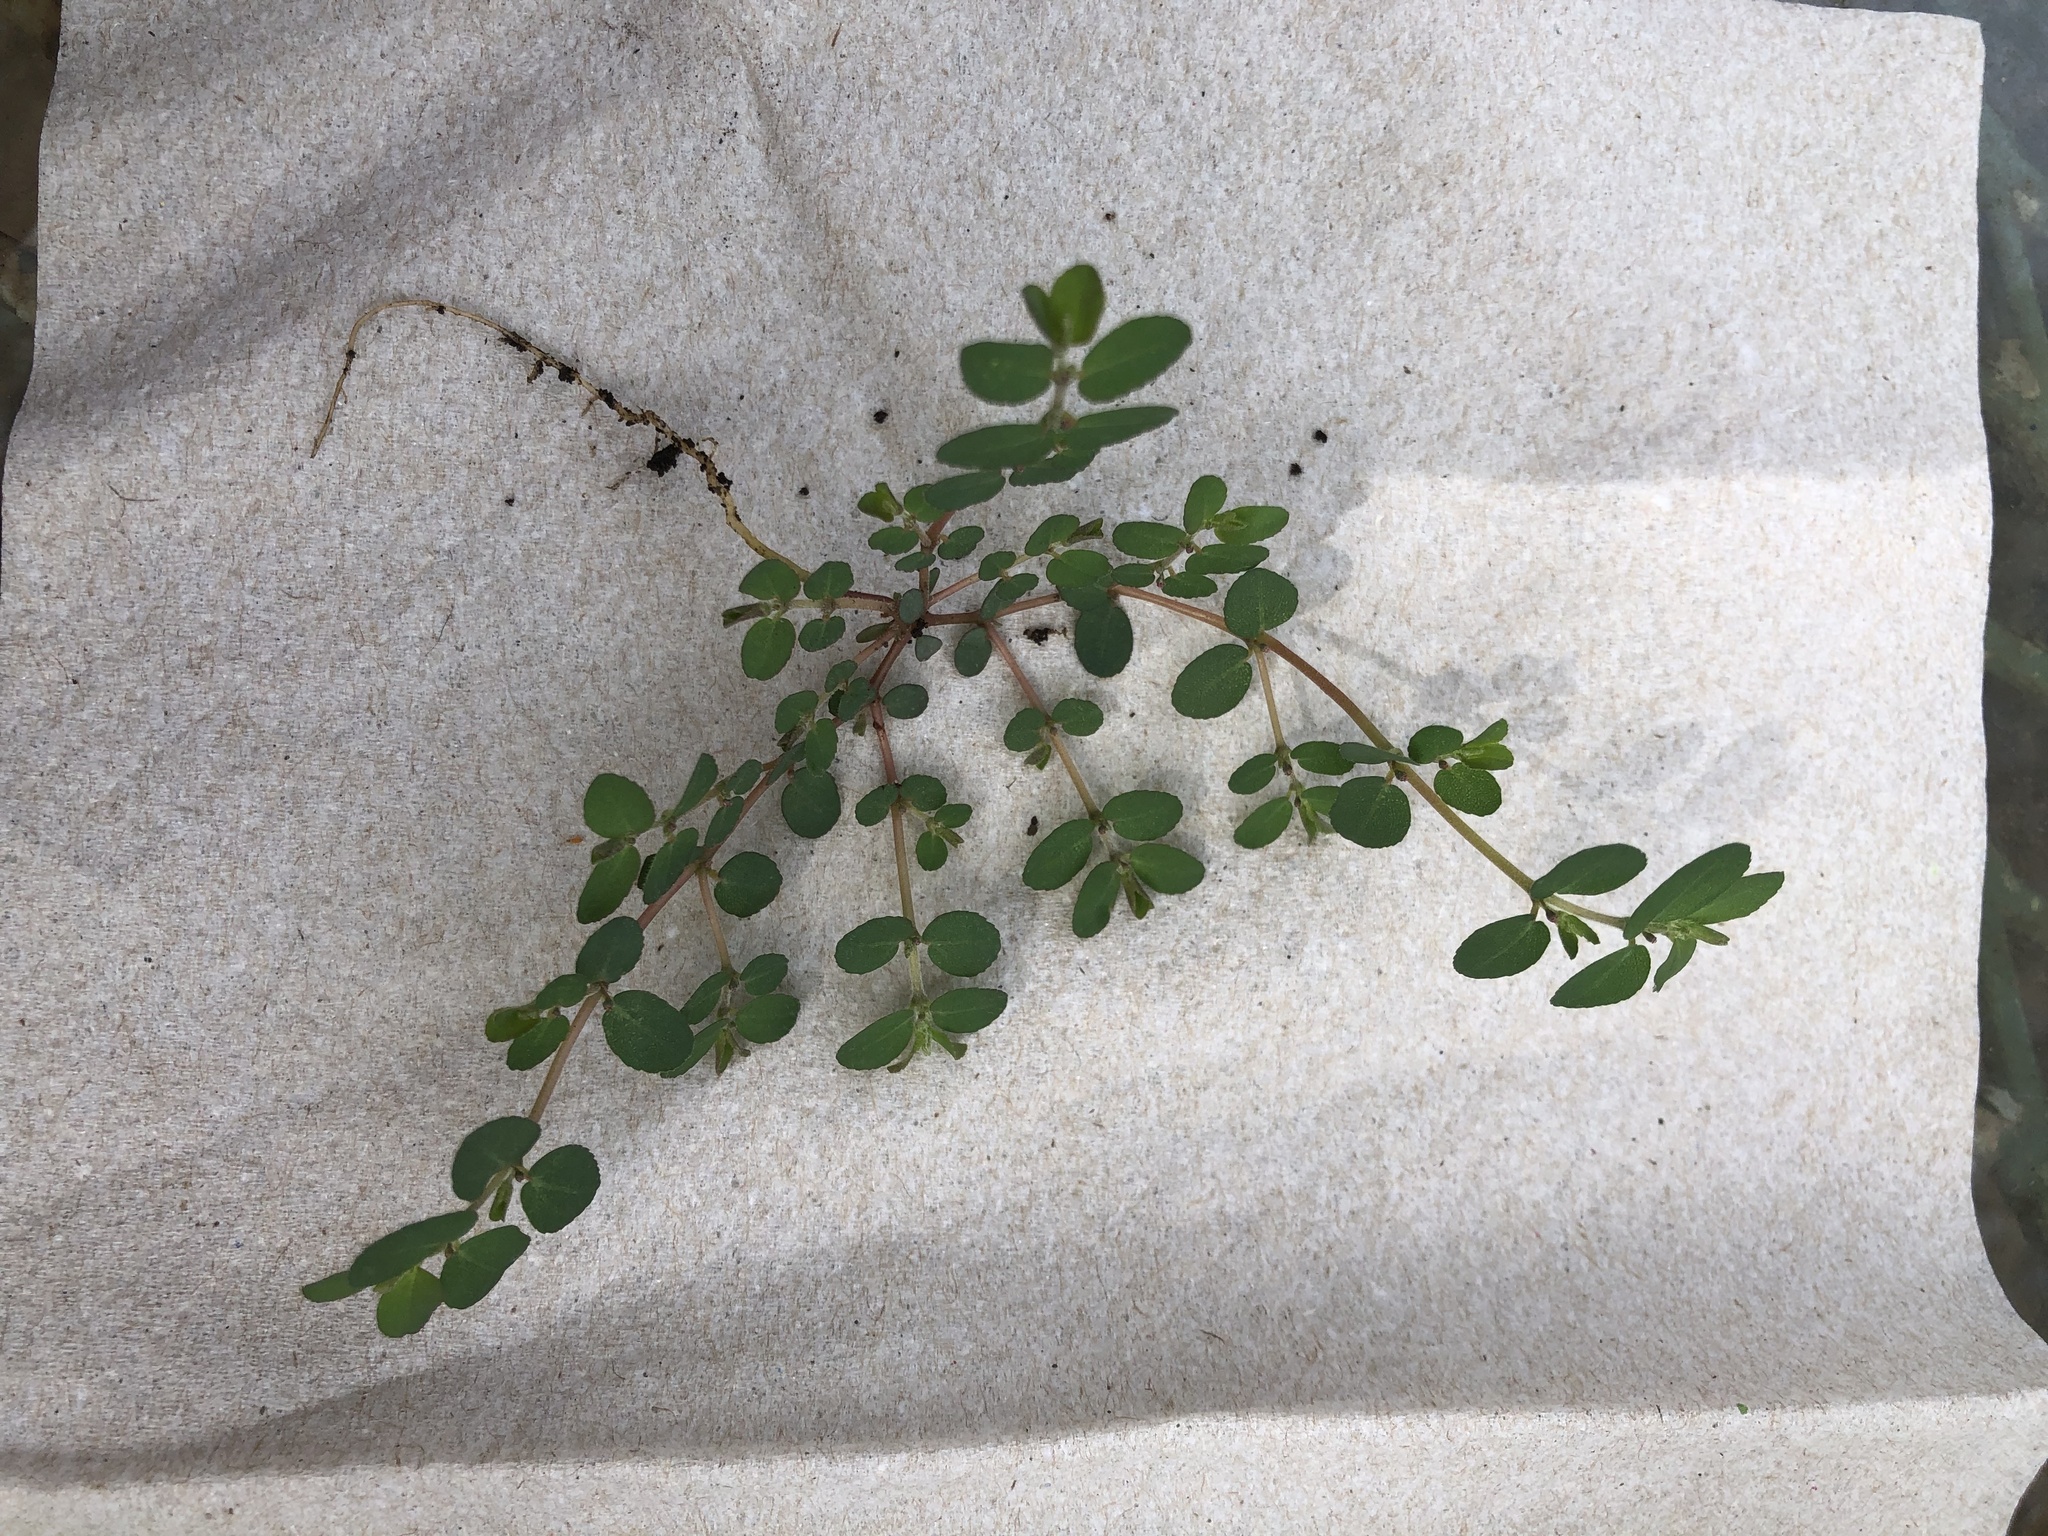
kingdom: Plantae
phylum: Tracheophyta
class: Magnoliopsida
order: Malpighiales
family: Euphorbiaceae
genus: Euphorbia
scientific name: Euphorbia prostrata
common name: Prostrate sandmat
